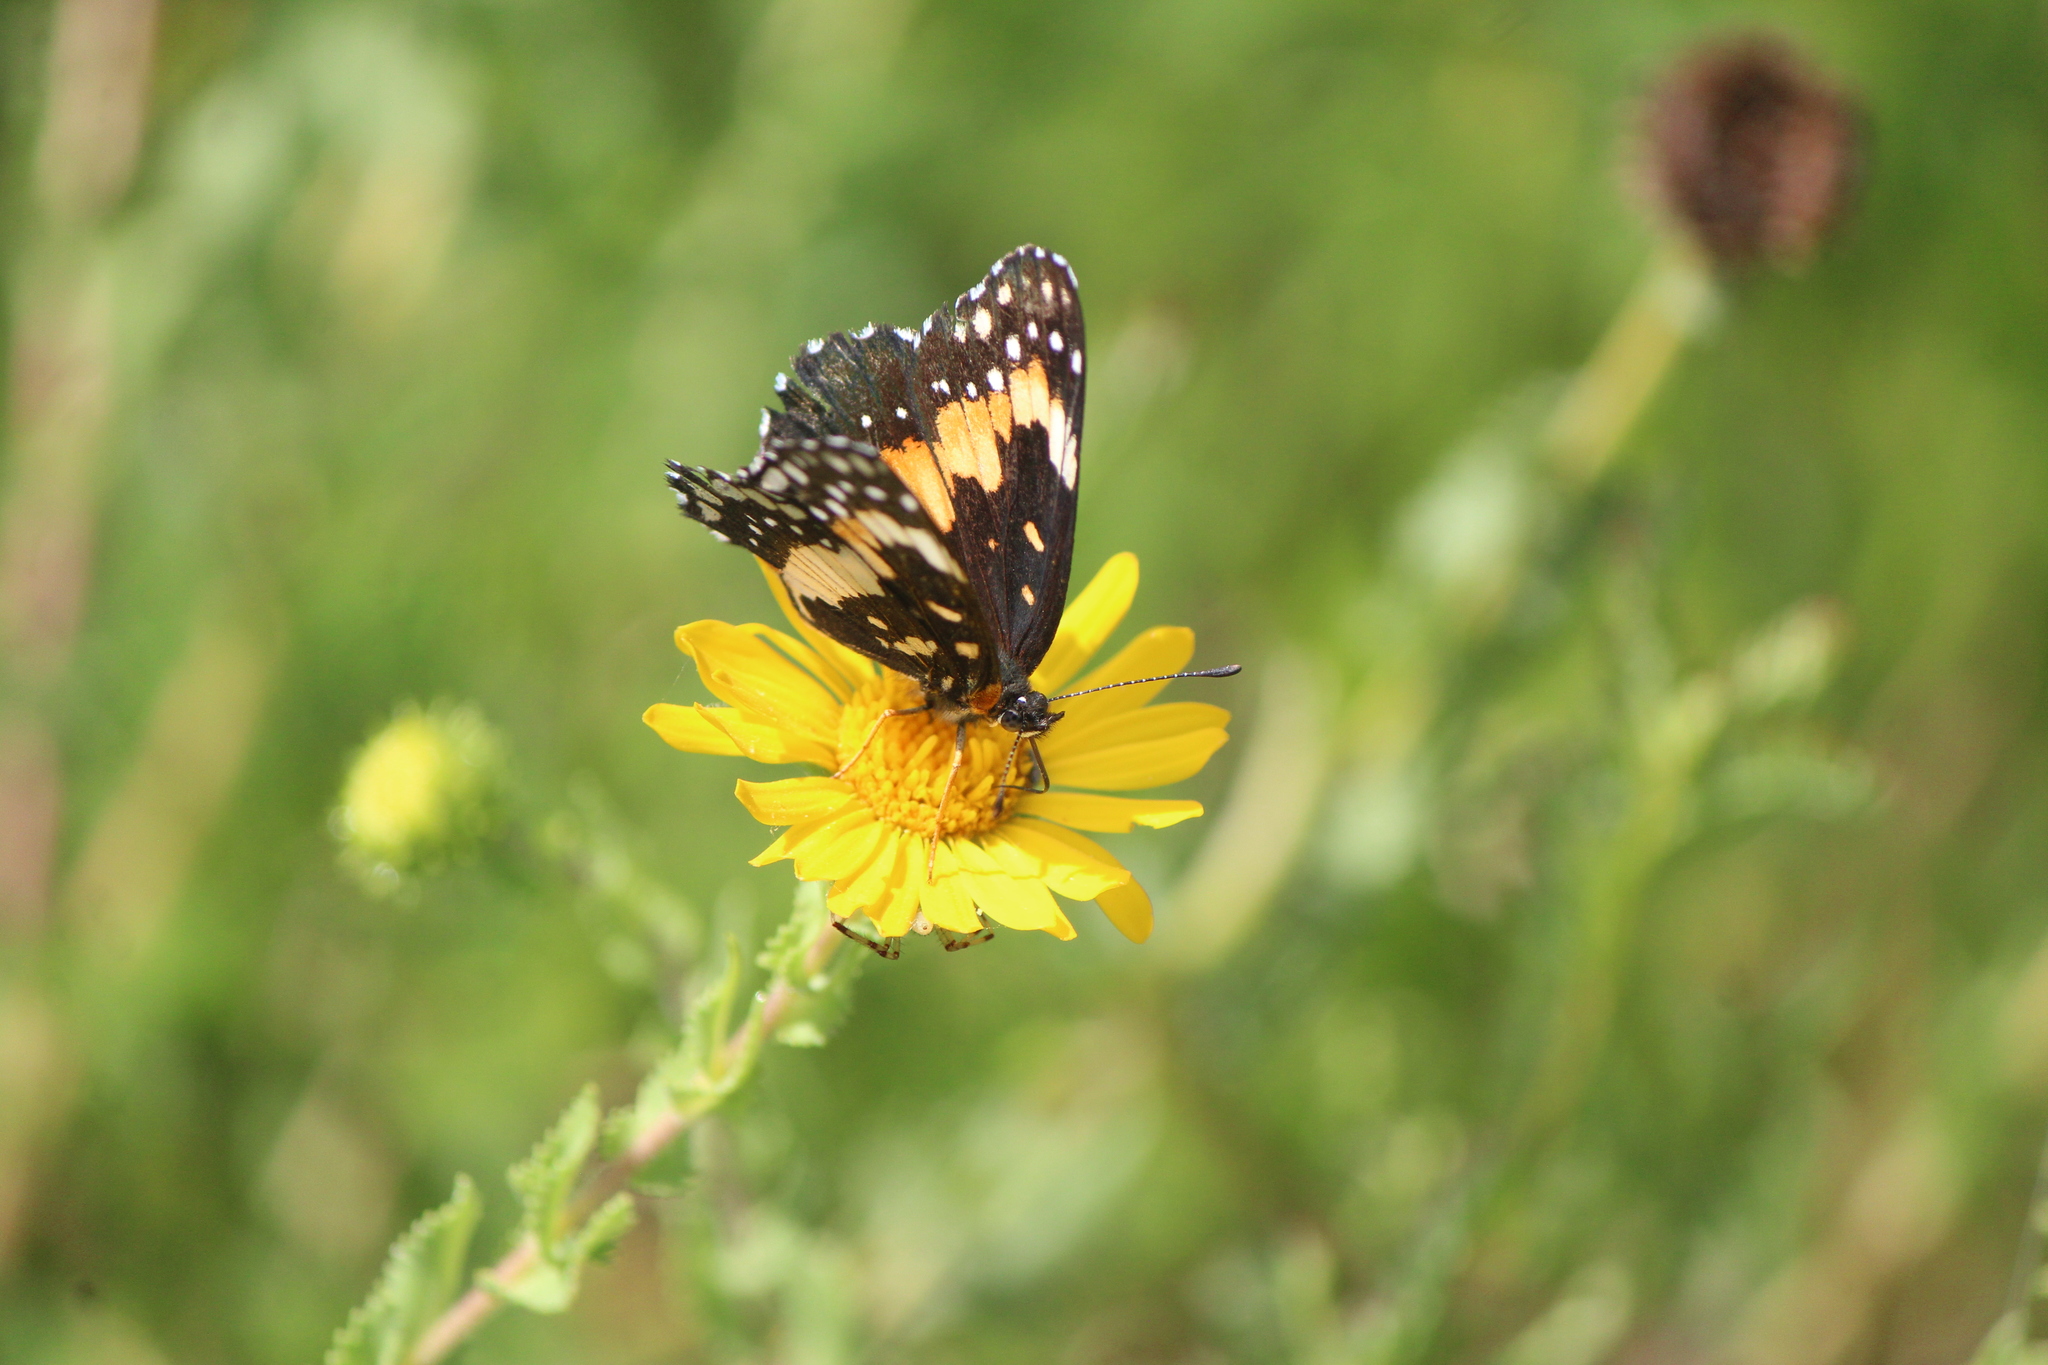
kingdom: Animalia
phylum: Arthropoda
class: Insecta
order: Lepidoptera
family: Nymphalidae
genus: Chlosyne
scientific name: Chlosyne lacinia
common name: Bordered patch
